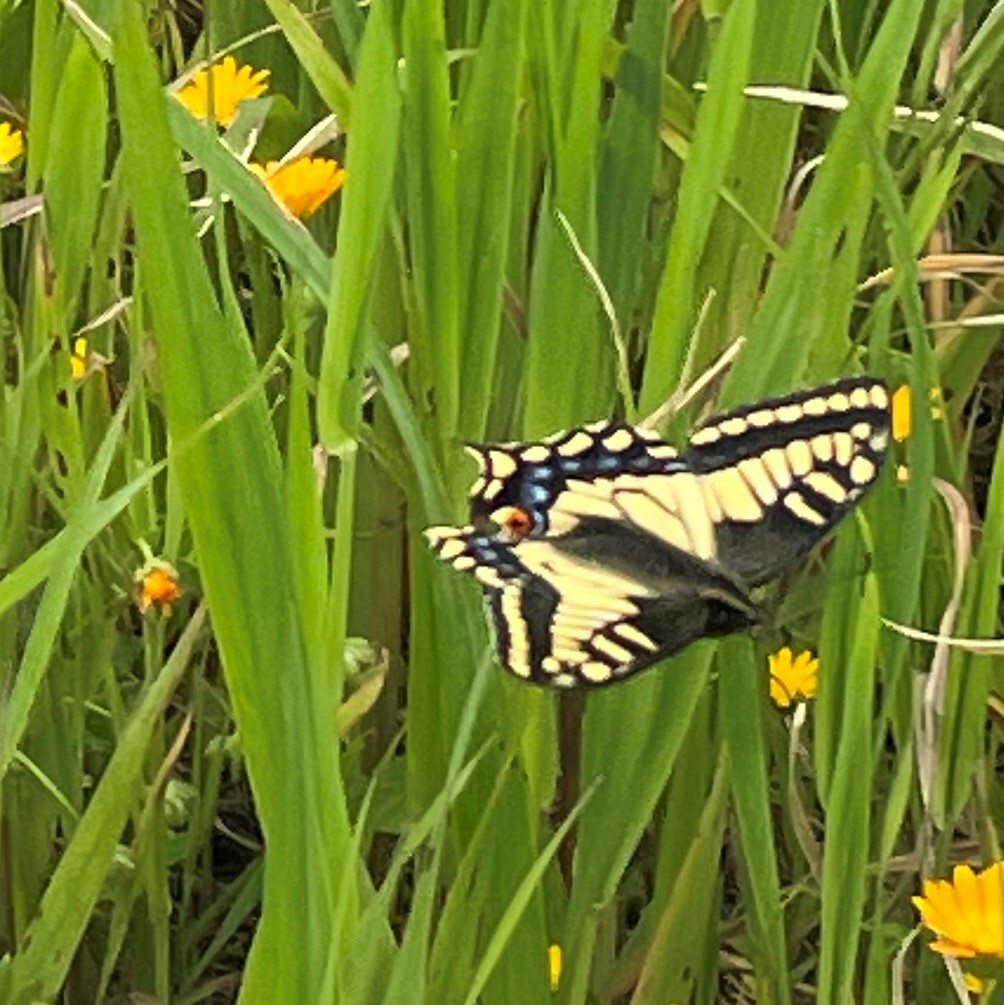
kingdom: Animalia
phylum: Arthropoda
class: Insecta
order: Lepidoptera
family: Papilionidae
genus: Papilio
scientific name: Papilio zelicaon
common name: Anise swallowtail
